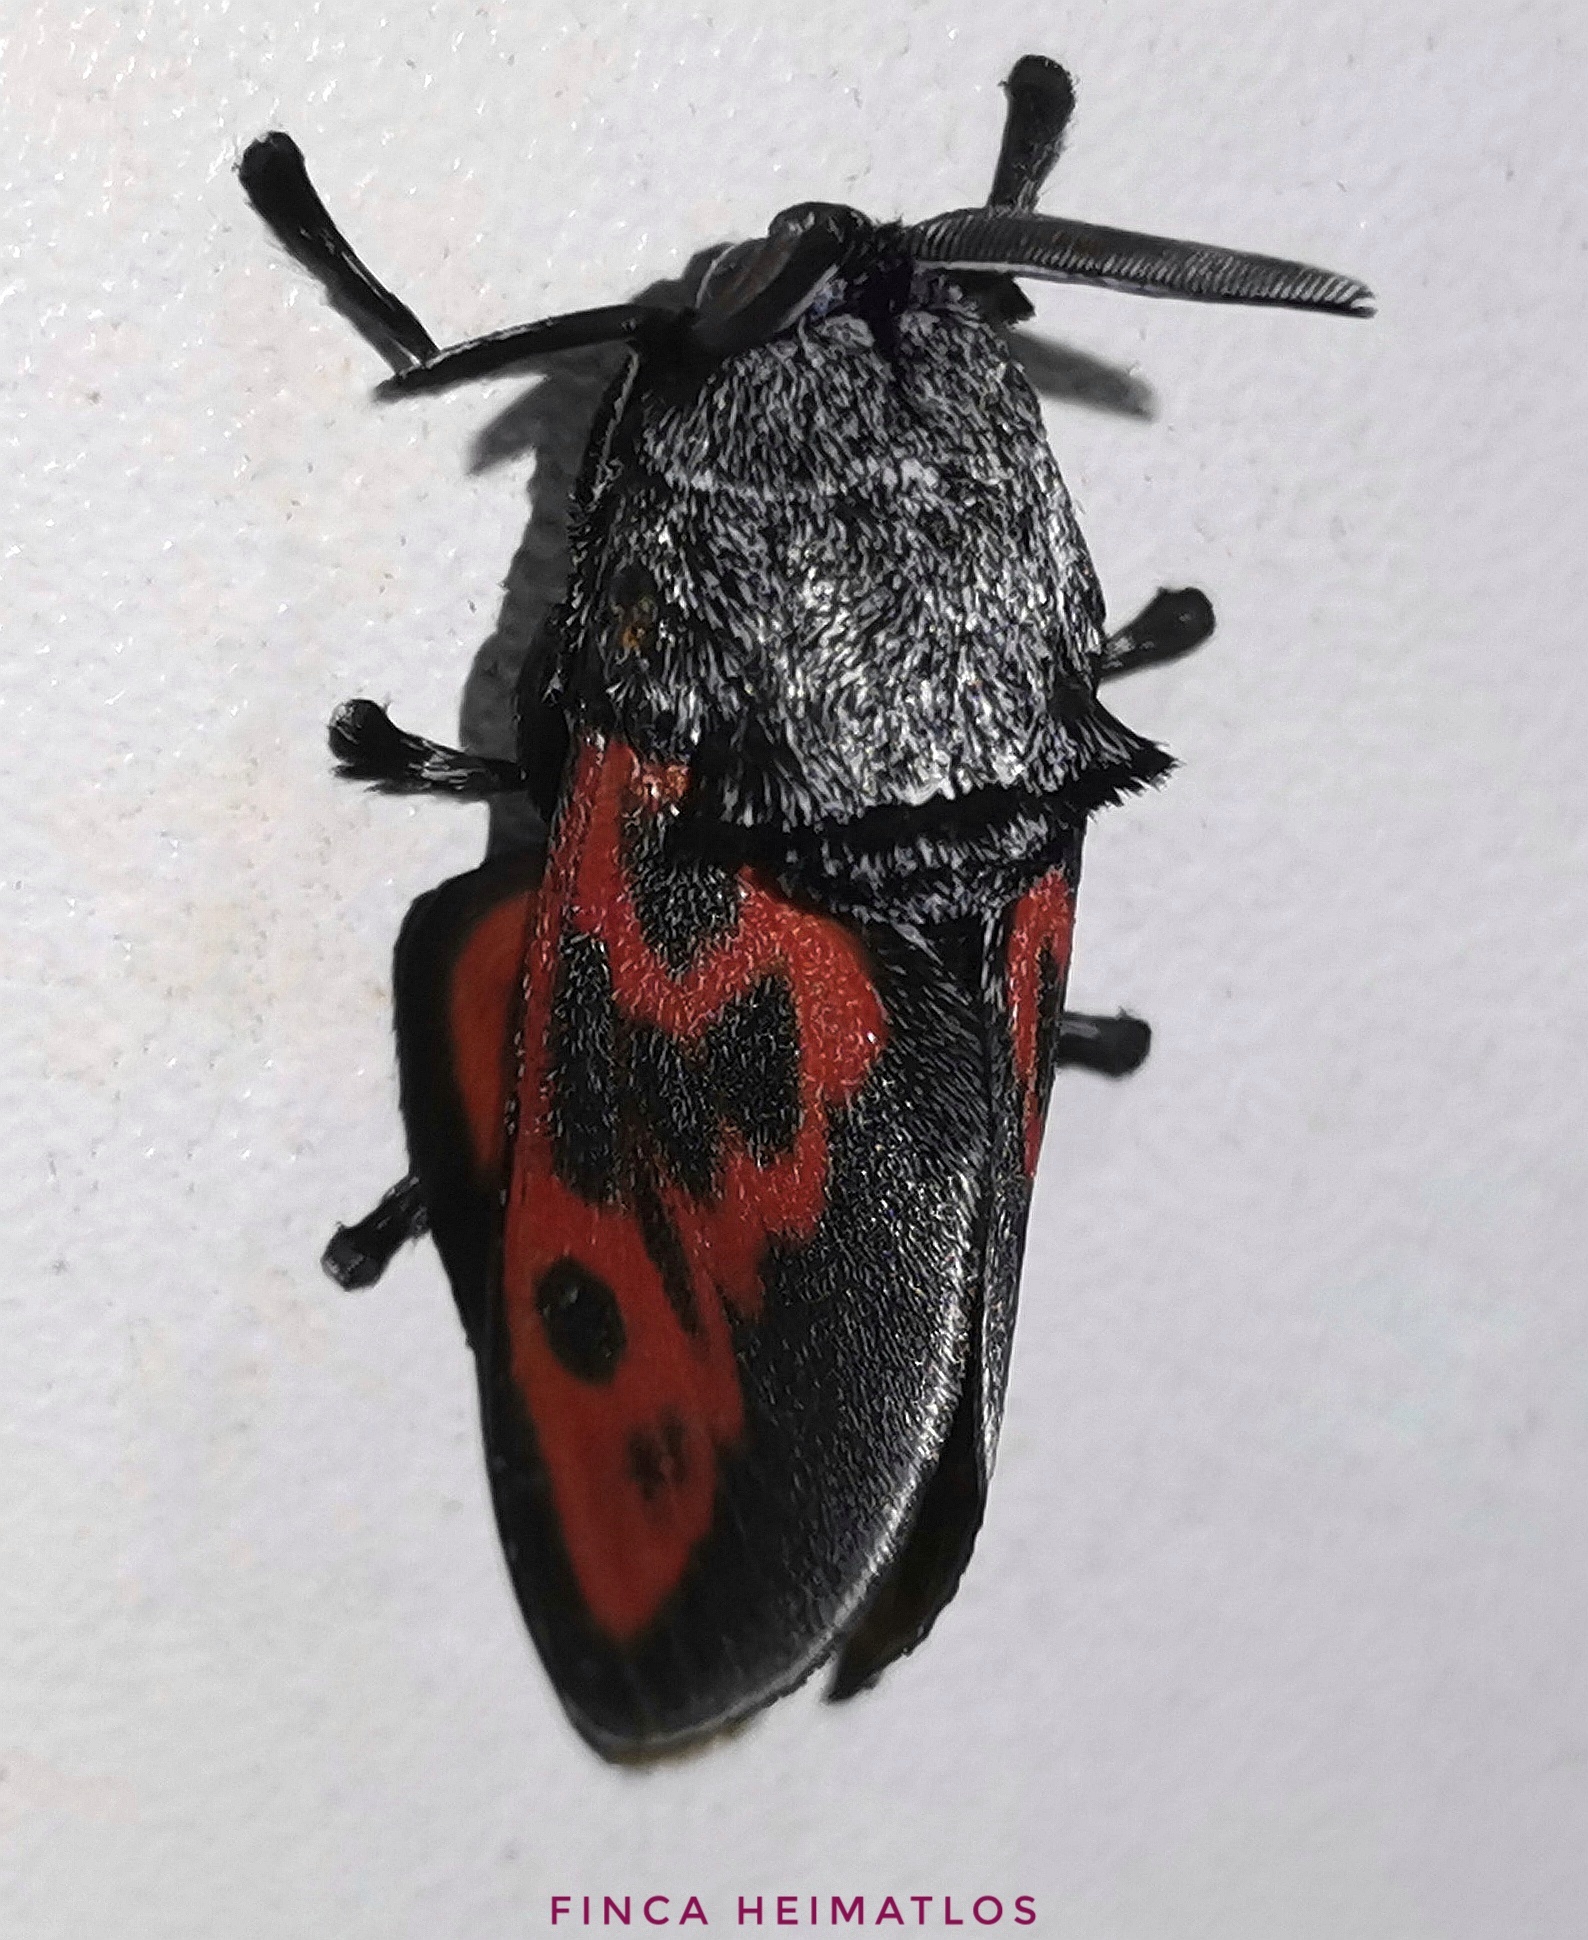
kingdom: Animalia
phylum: Arthropoda
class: Insecta
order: Lepidoptera
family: Megalopygidae
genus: Langucys
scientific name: Langucys nigrorufus
